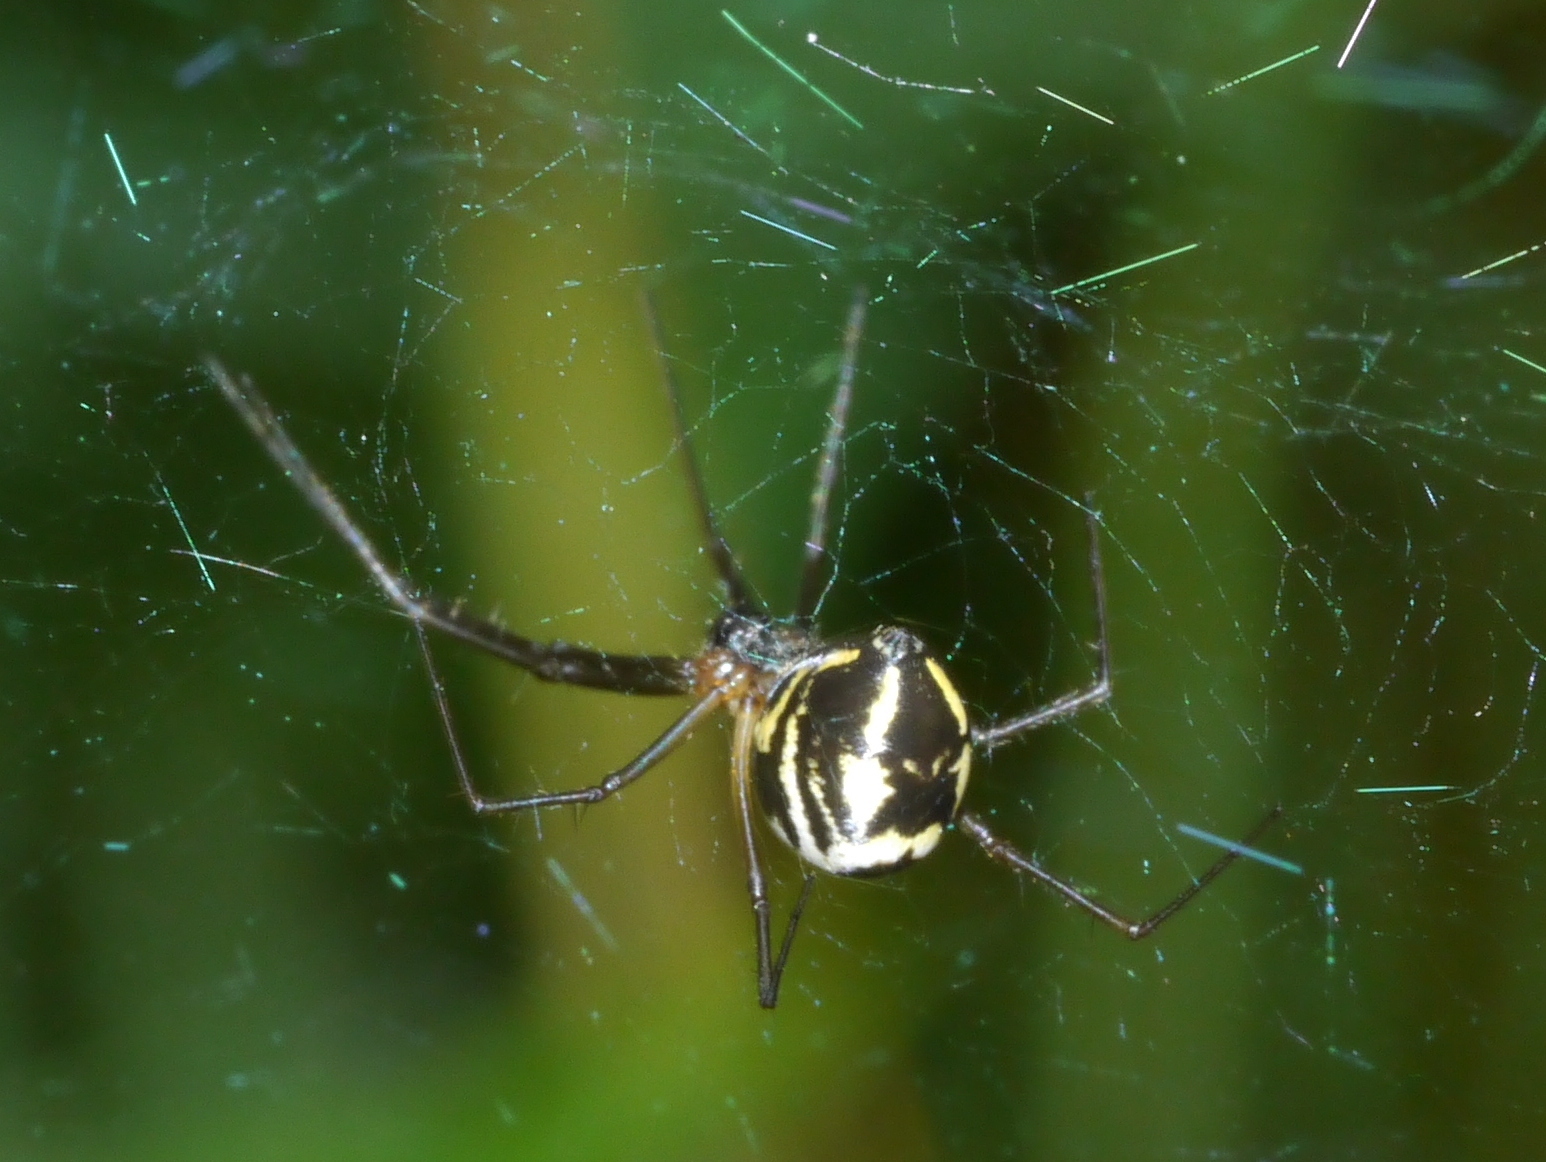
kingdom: Animalia
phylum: Arthropoda
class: Arachnida
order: Araneae
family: Linyphiidae
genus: Neriene
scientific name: Neriene radiata
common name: Filmy dome spider
